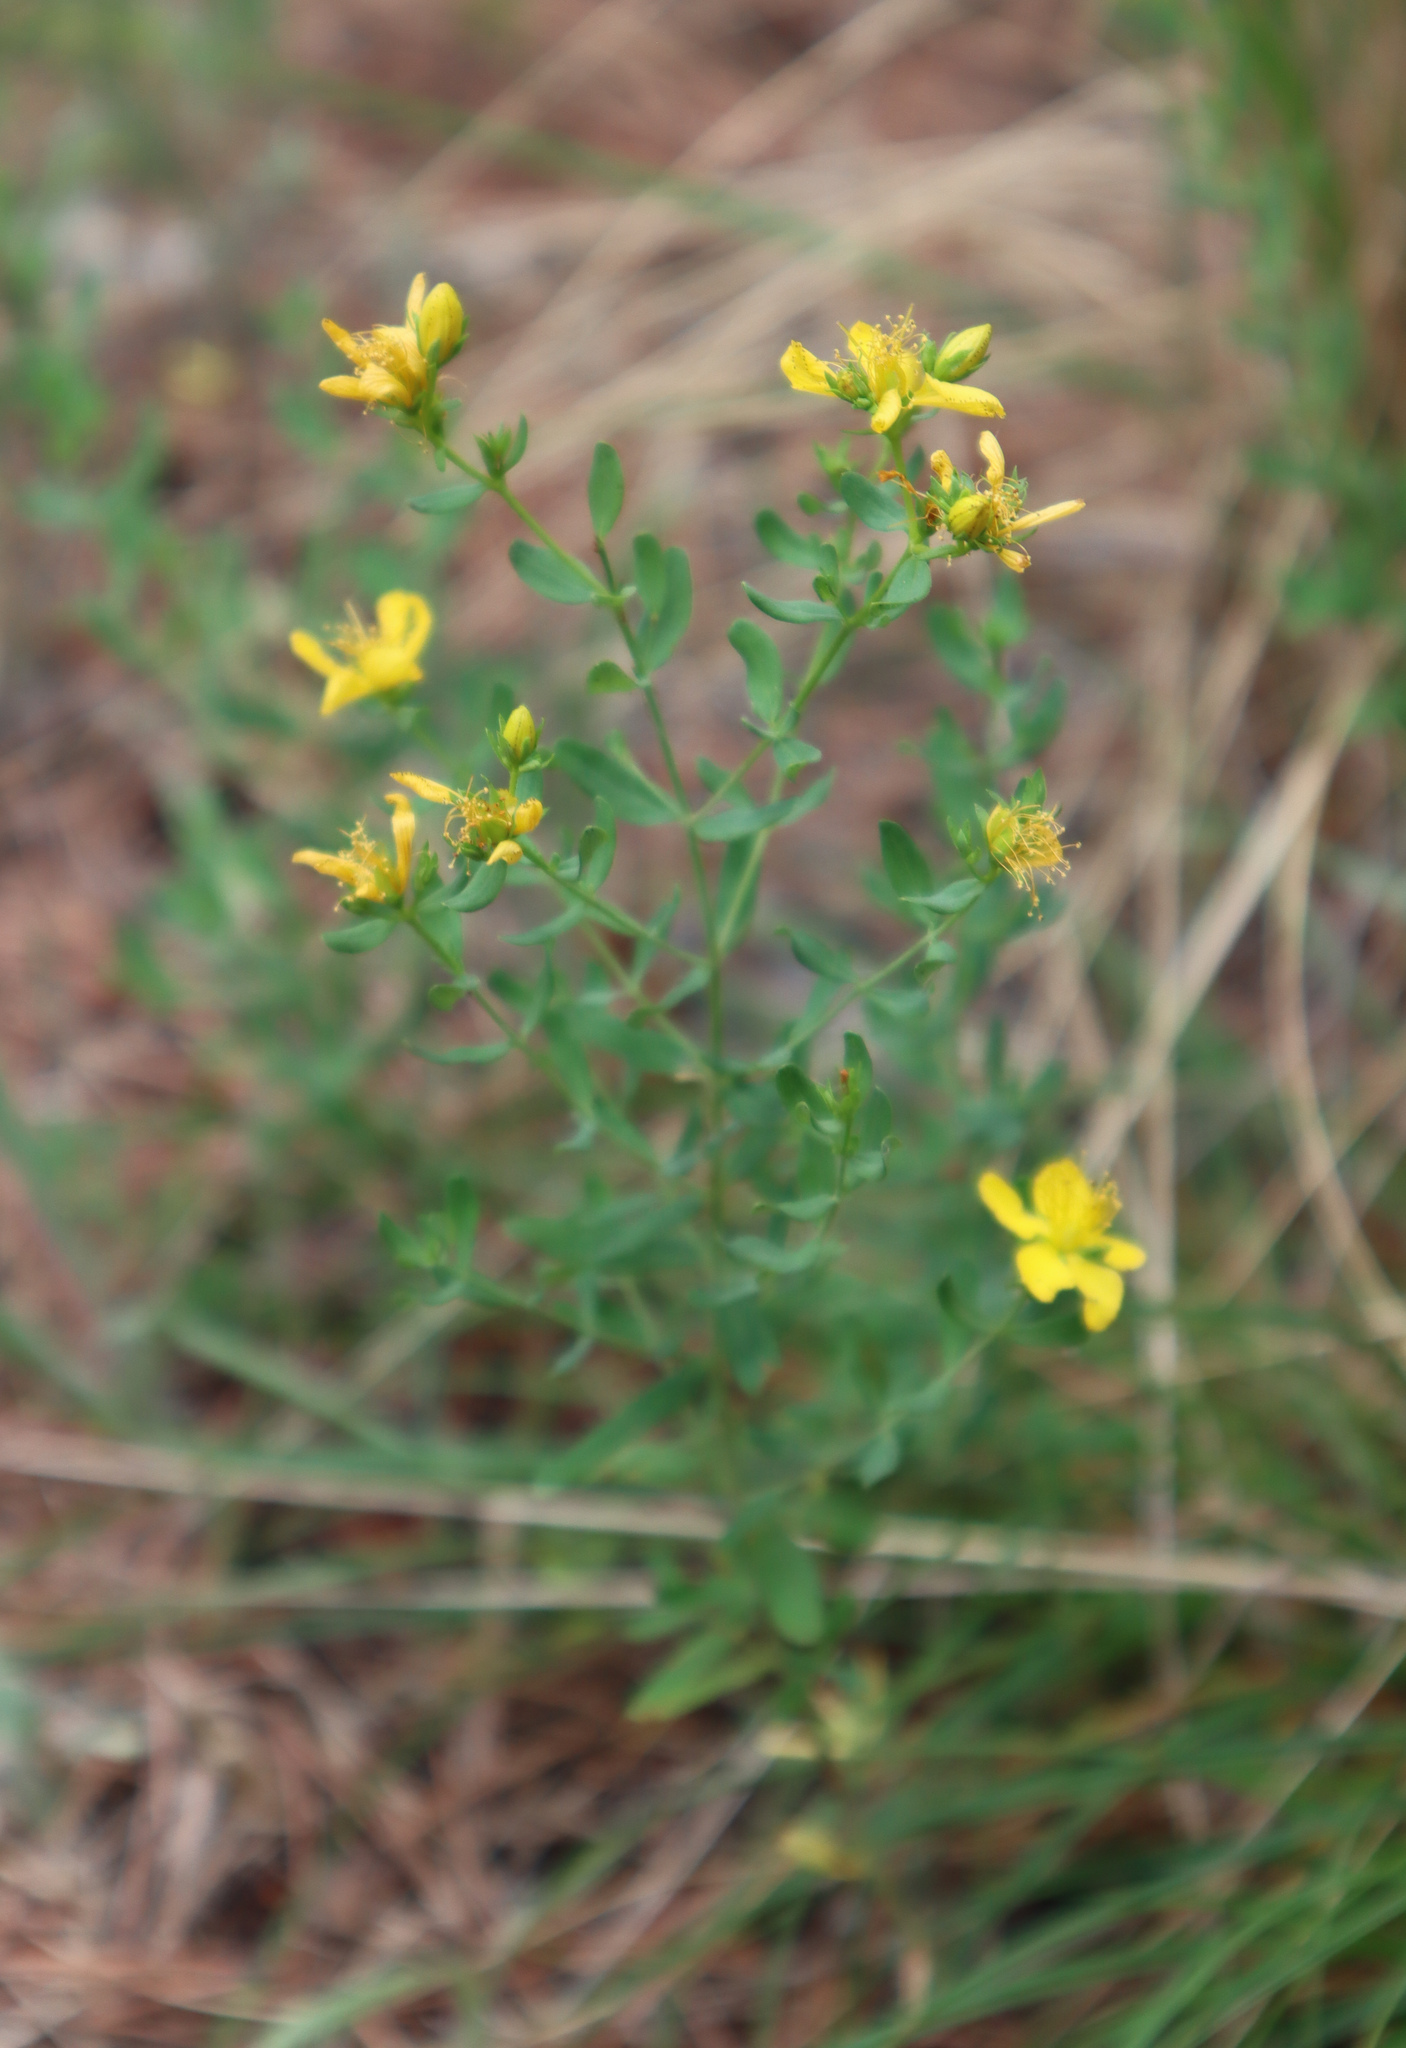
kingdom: Plantae
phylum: Tracheophyta
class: Magnoliopsida
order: Malpighiales
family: Hypericaceae
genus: Hypericum
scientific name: Hypericum perforatum
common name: Common st. johnswort
